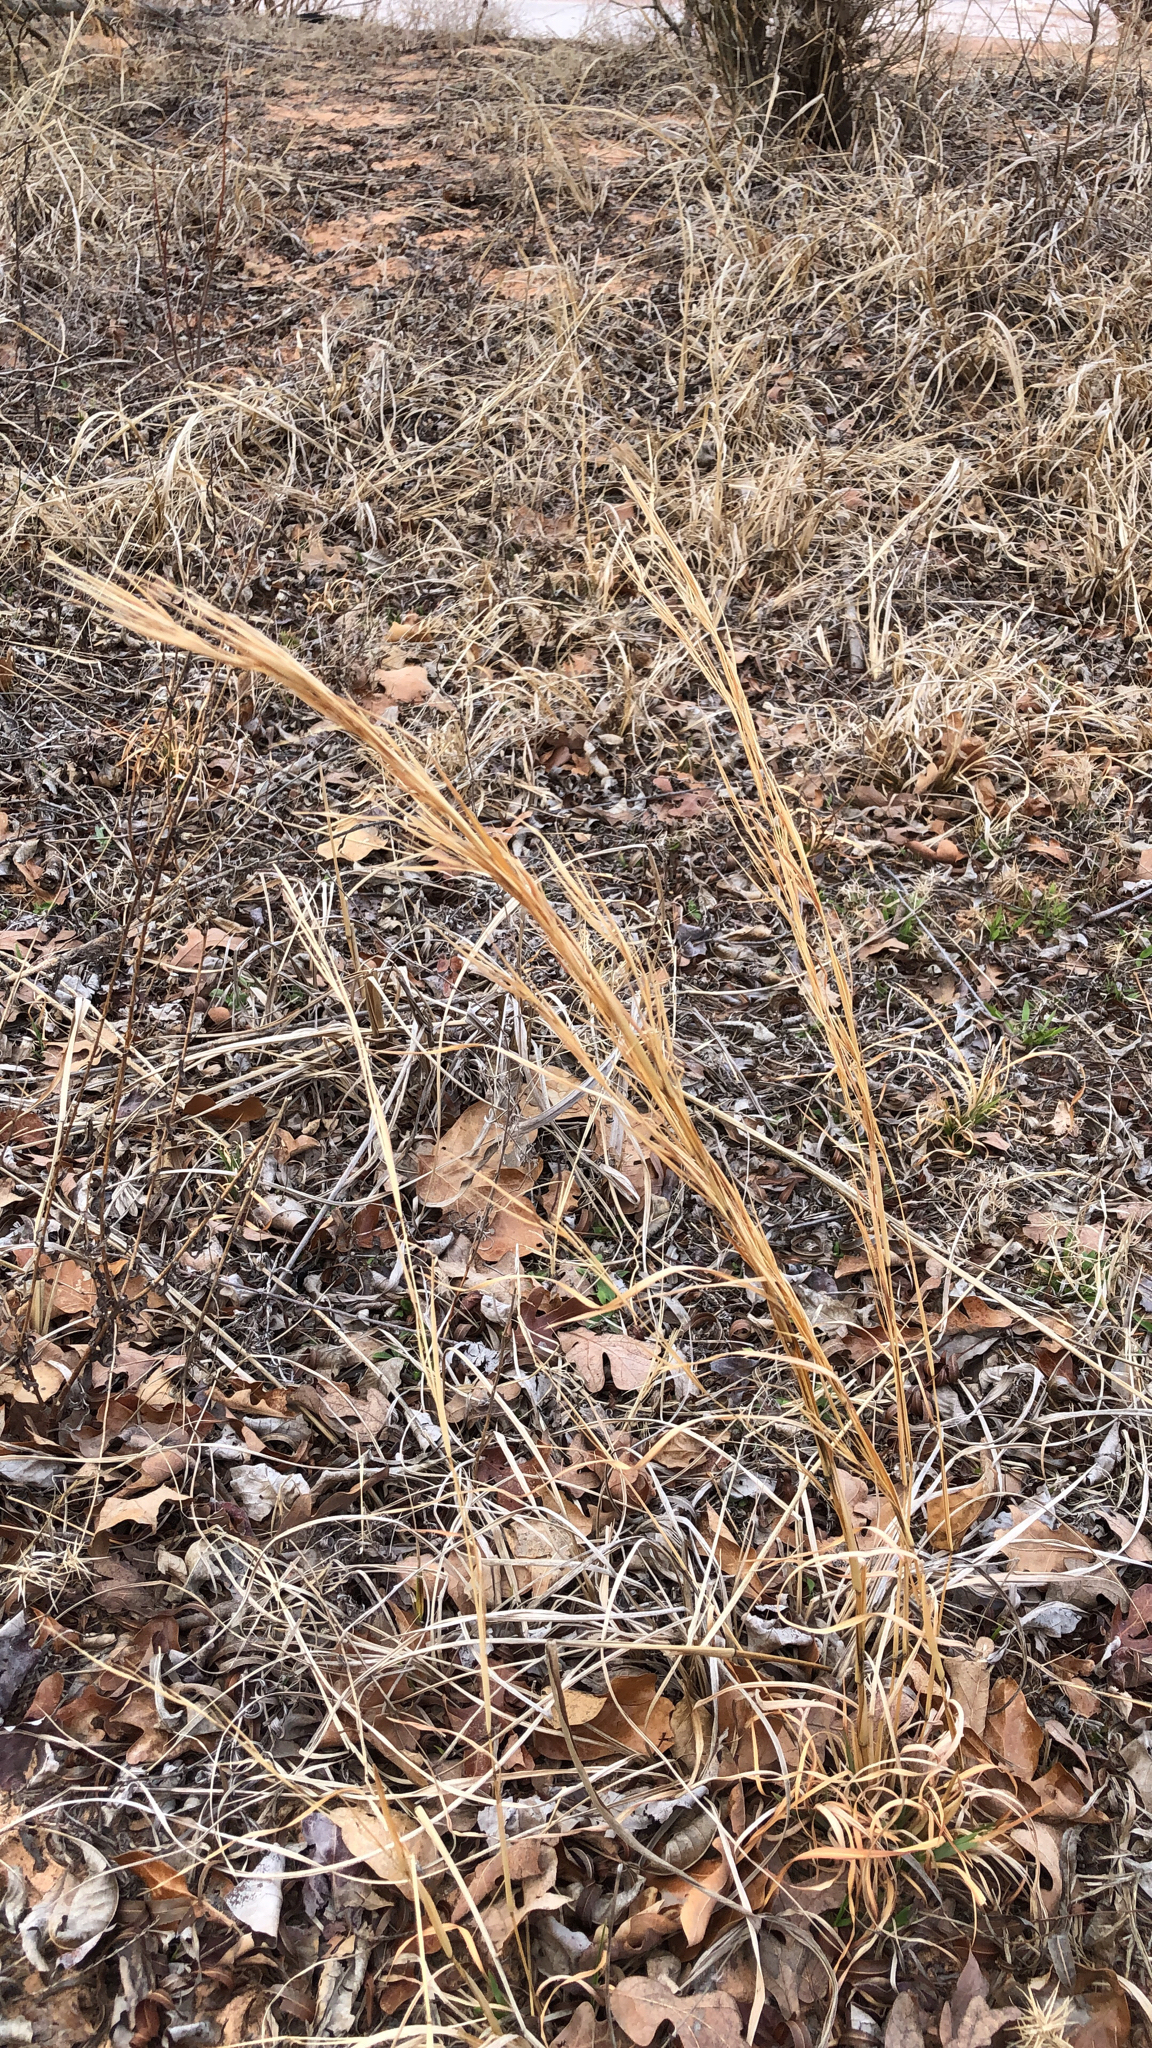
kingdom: Plantae
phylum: Tracheophyta
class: Liliopsida
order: Poales
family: Poaceae
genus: Andropogon
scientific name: Andropogon virginicus
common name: Broomsedge bluestem
